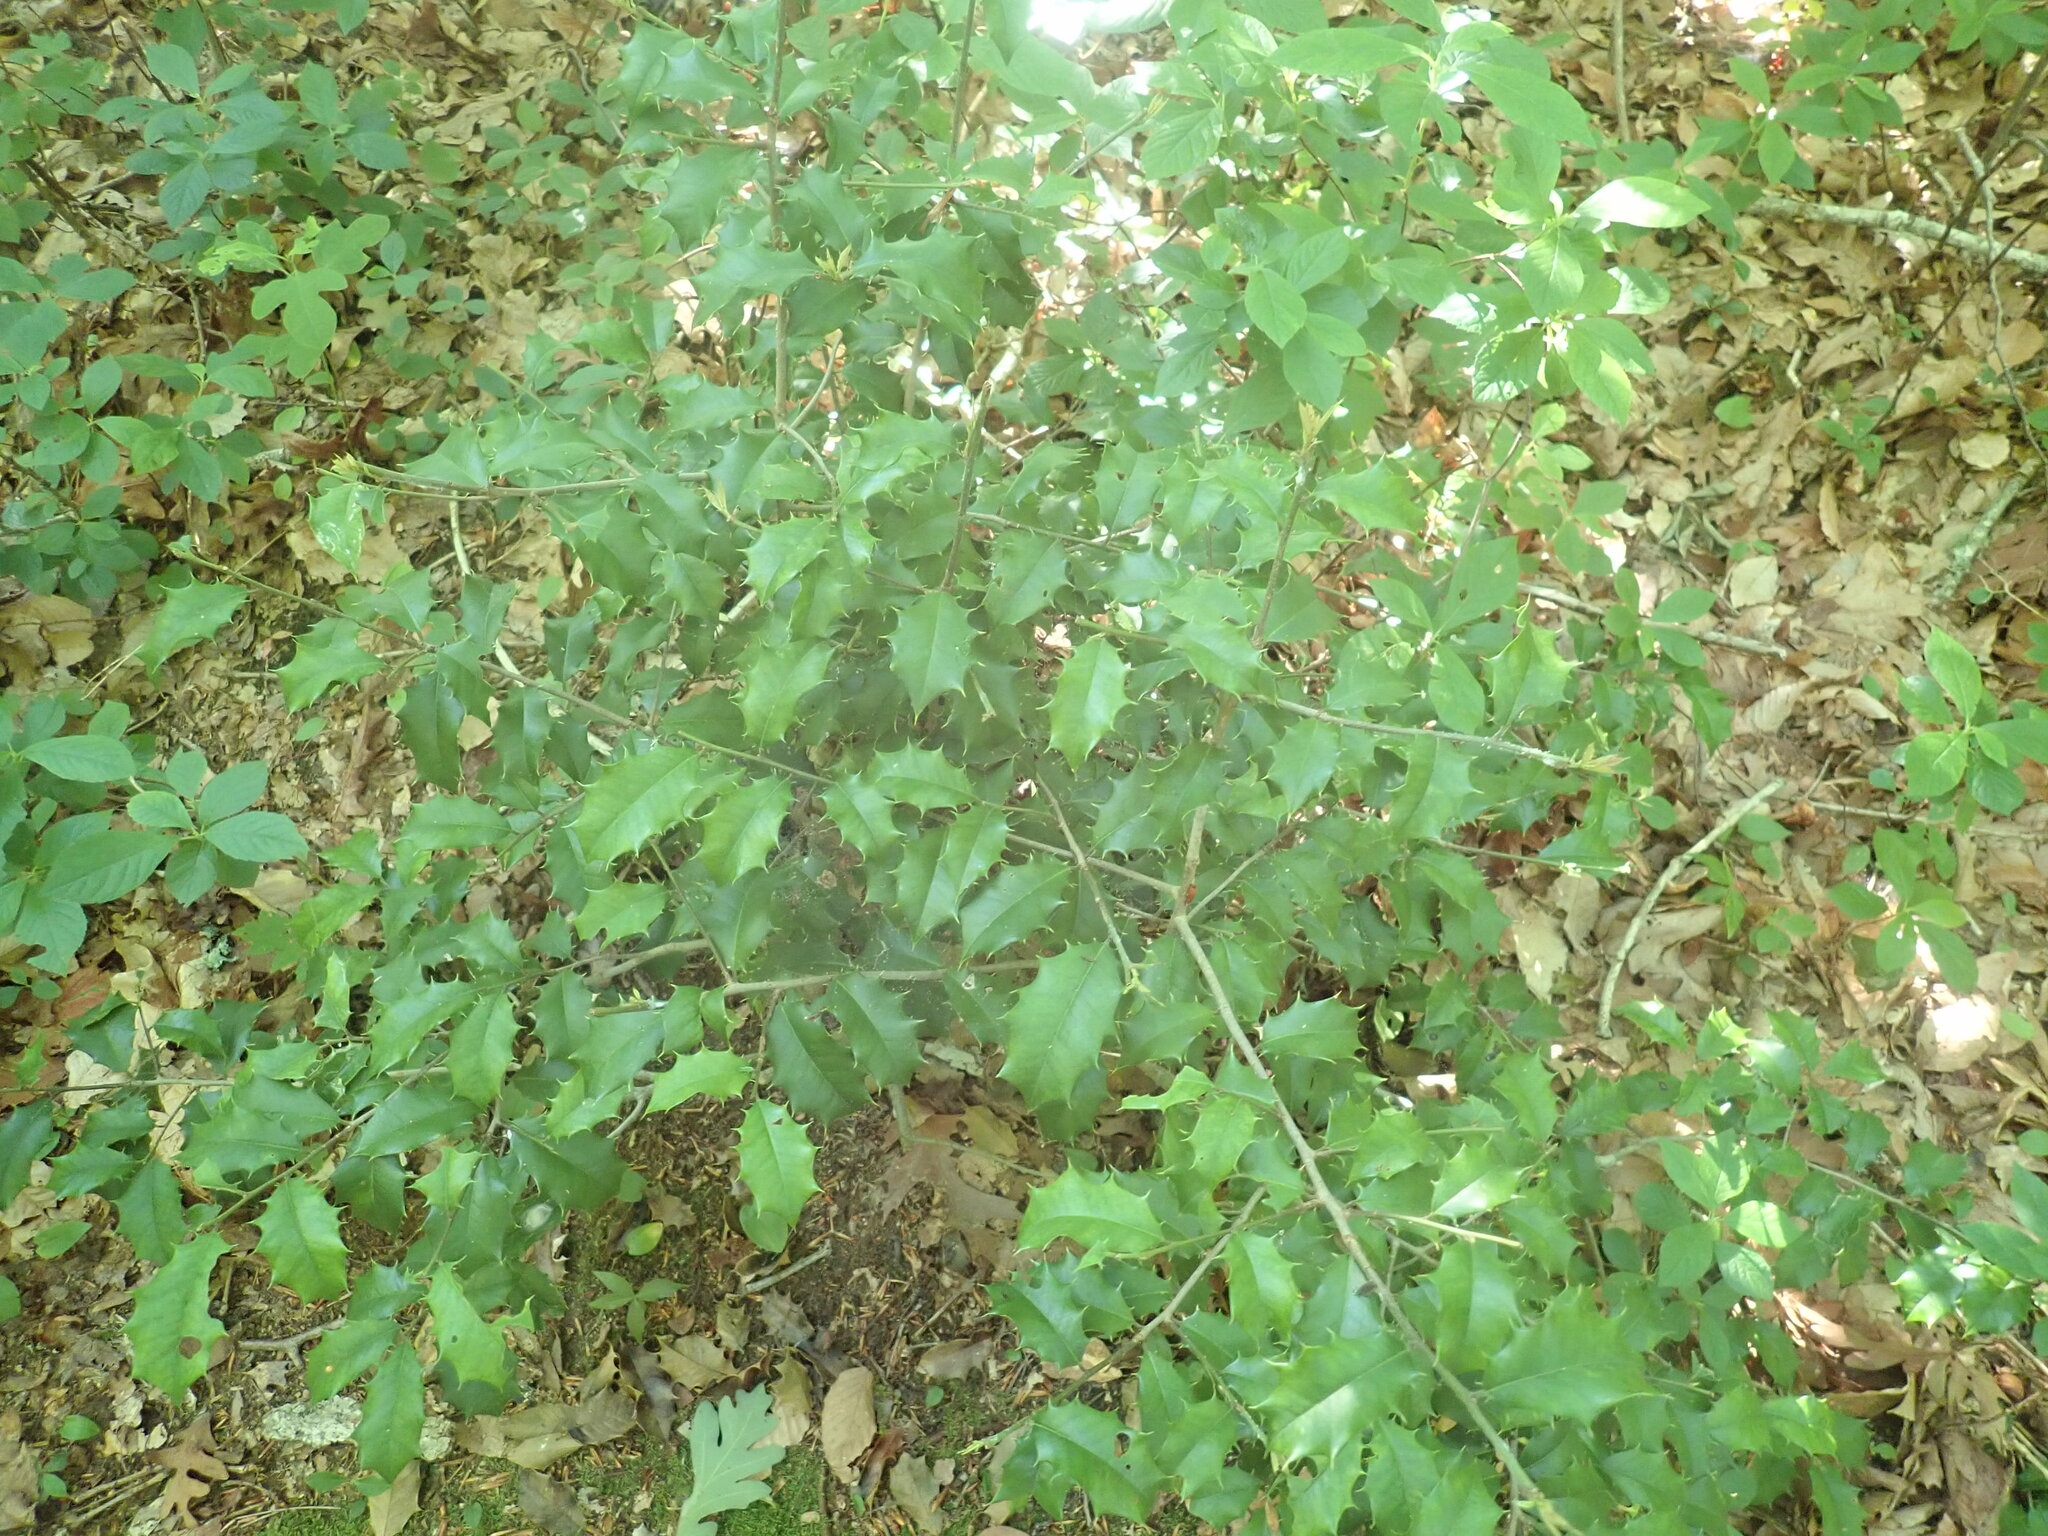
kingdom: Plantae
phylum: Tracheophyta
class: Magnoliopsida
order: Aquifoliales
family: Aquifoliaceae
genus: Ilex
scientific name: Ilex opaca
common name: American holly
